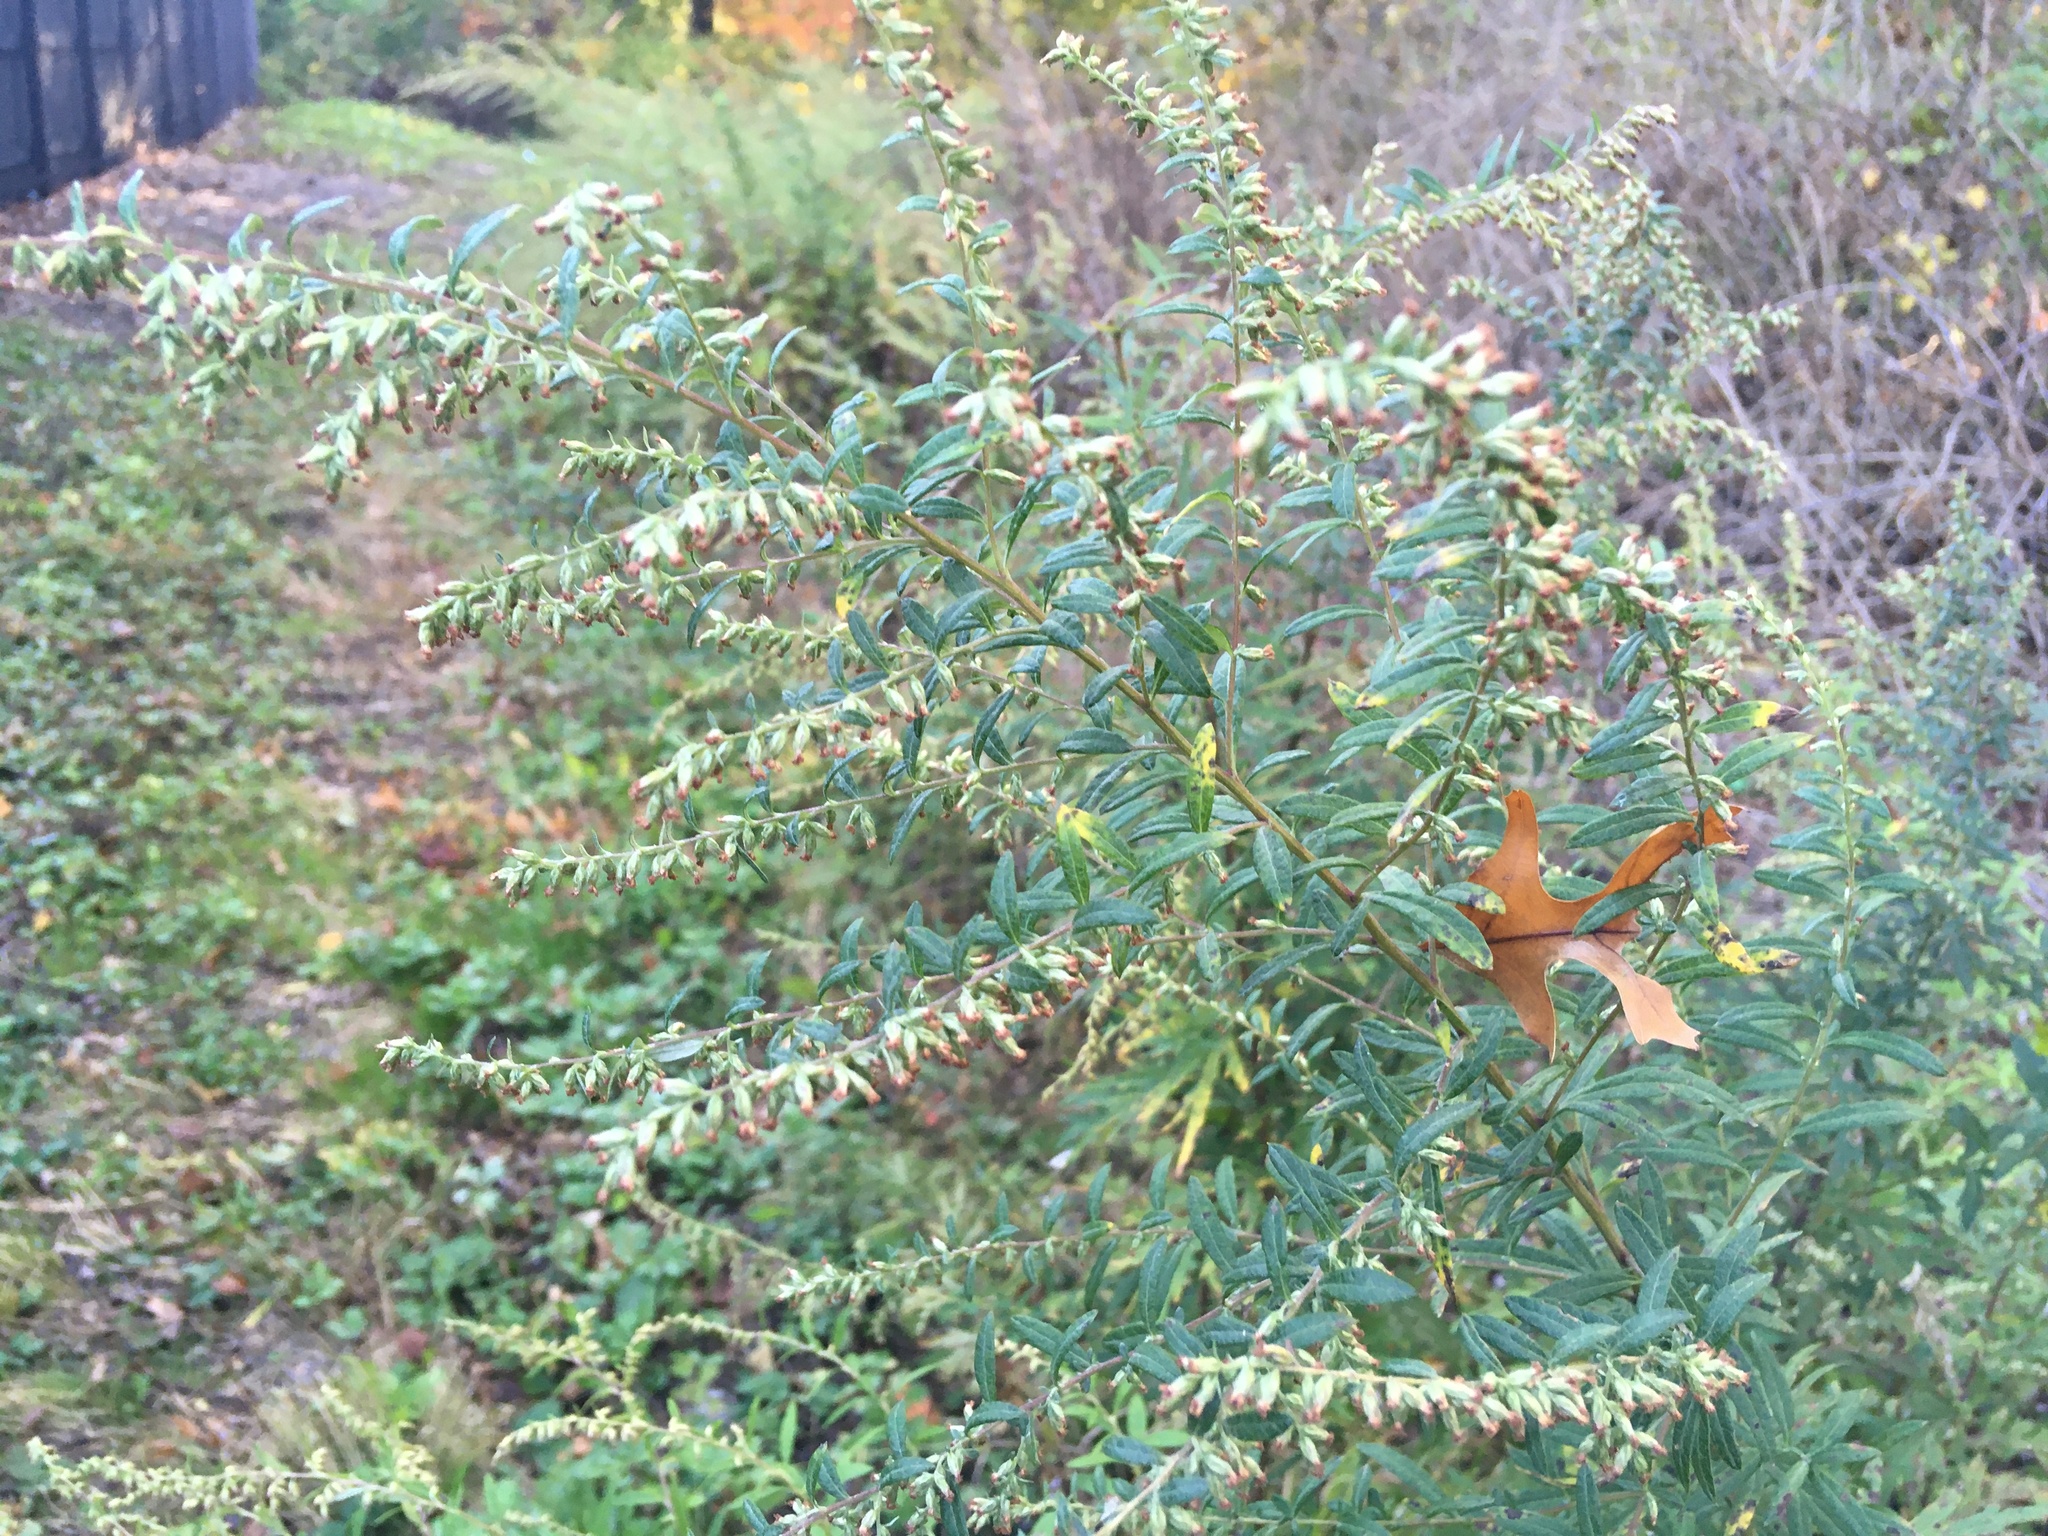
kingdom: Plantae
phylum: Tracheophyta
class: Magnoliopsida
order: Asterales
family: Asteraceae
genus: Artemisia
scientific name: Artemisia vulgaris
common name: Mugwort
